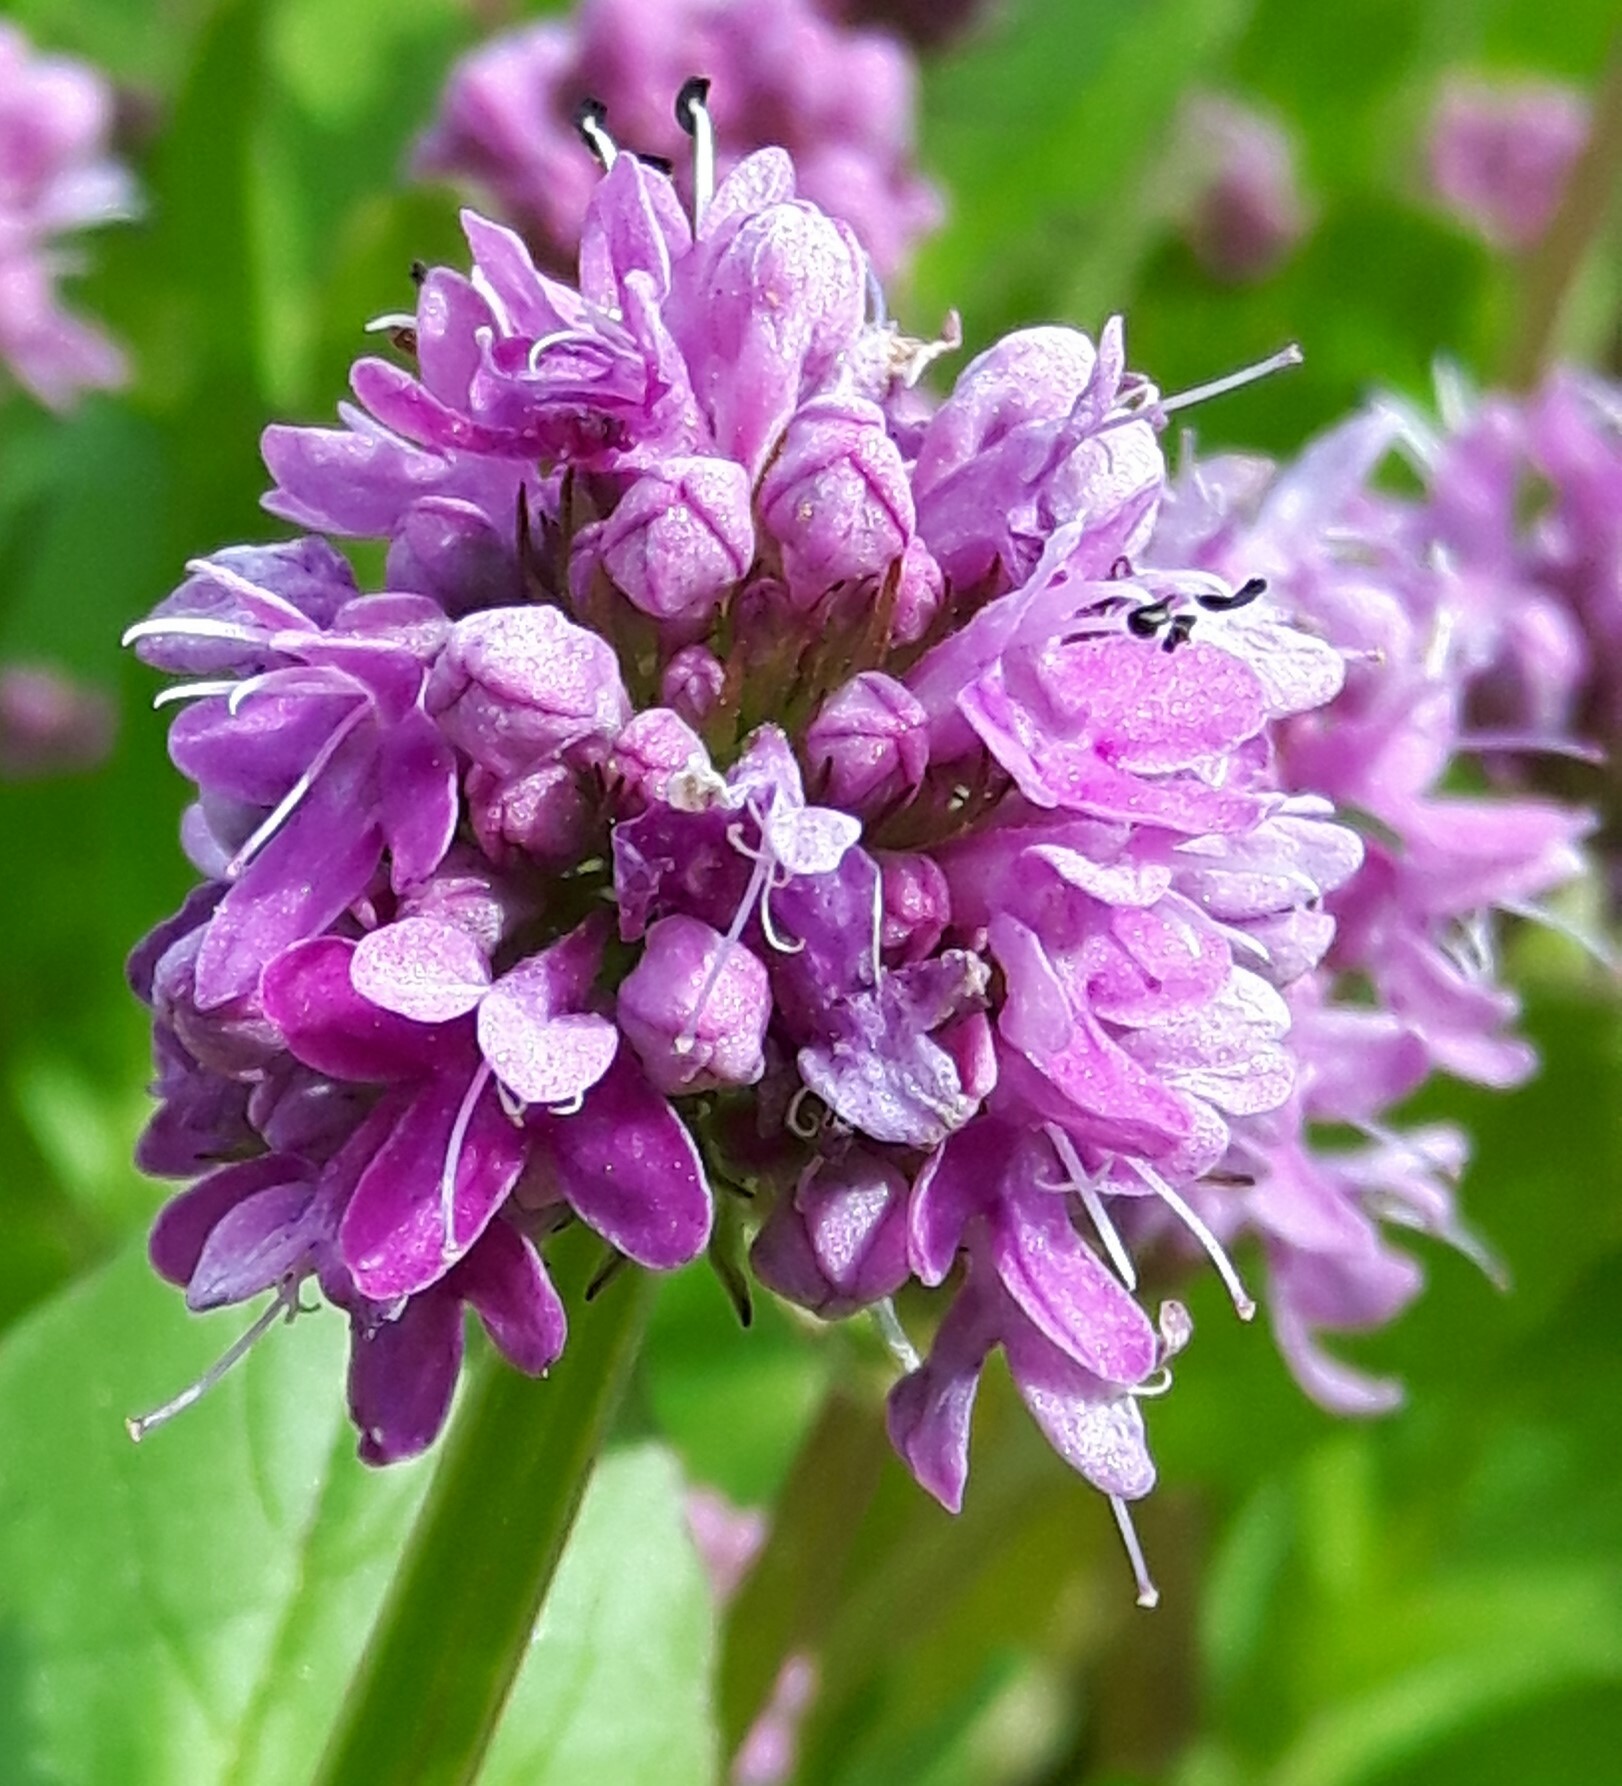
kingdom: Plantae
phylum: Tracheophyta
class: Magnoliopsida
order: Dipsacales
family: Caprifoliaceae
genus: Plectritis
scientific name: Plectritis congesta
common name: Pink plectritis
